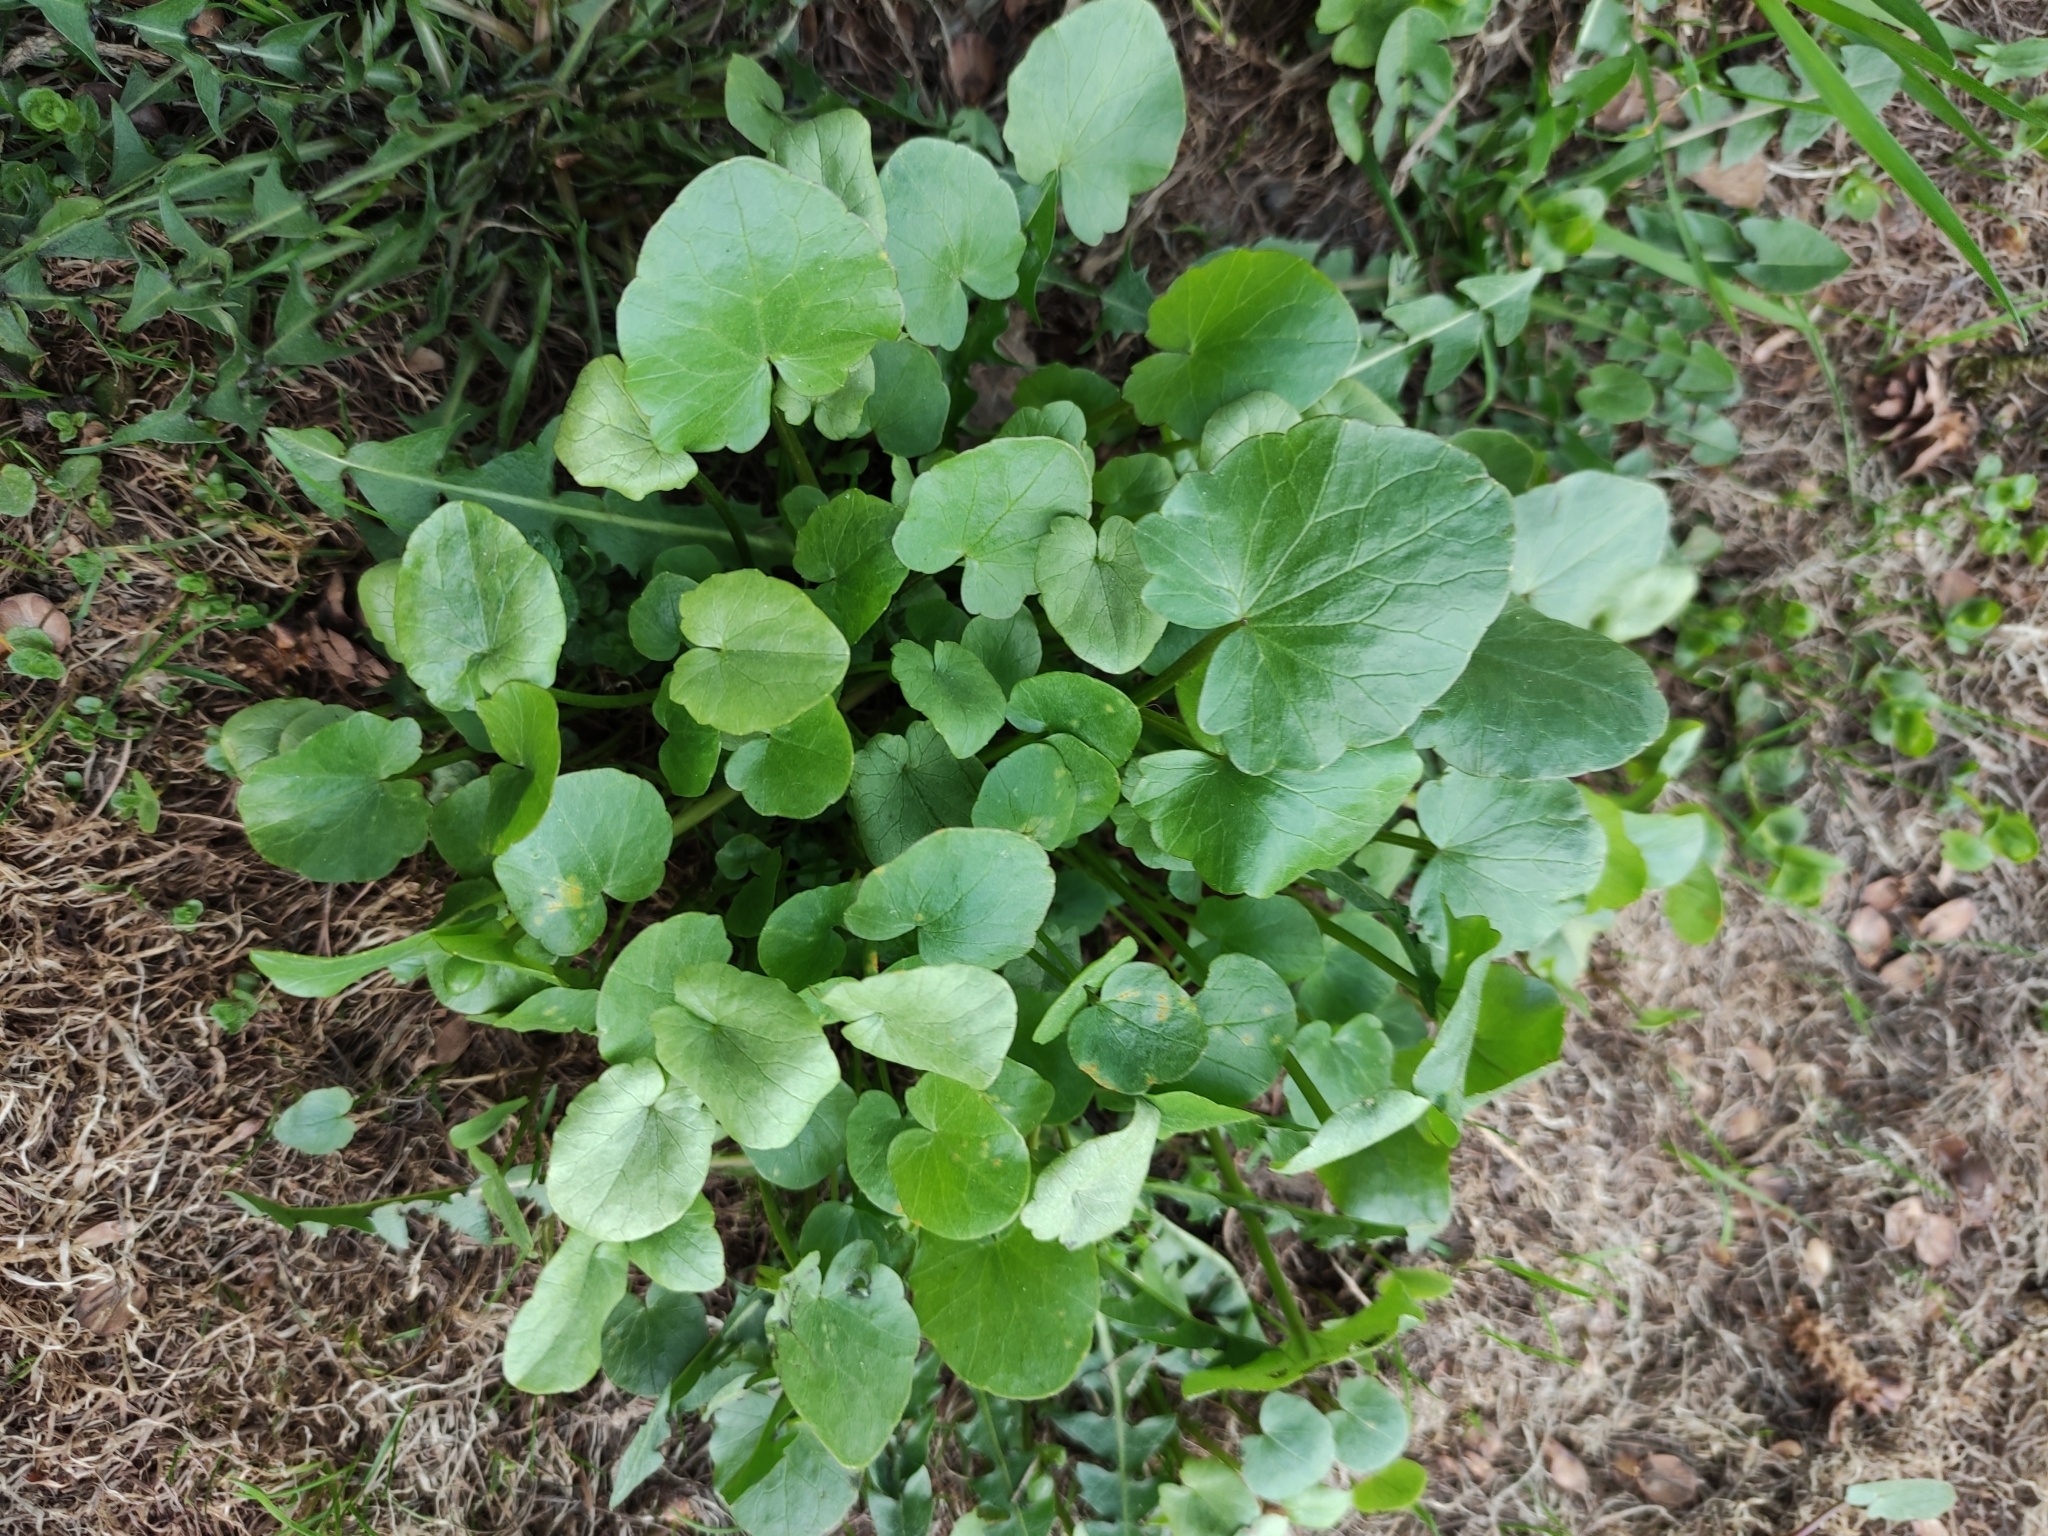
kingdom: Plantae
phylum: Tracheophyta
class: Magnoliopsida
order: Ranunculales
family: Ranunculaceae
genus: Ficaria
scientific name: Ficaria verna
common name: Lesser celandine
